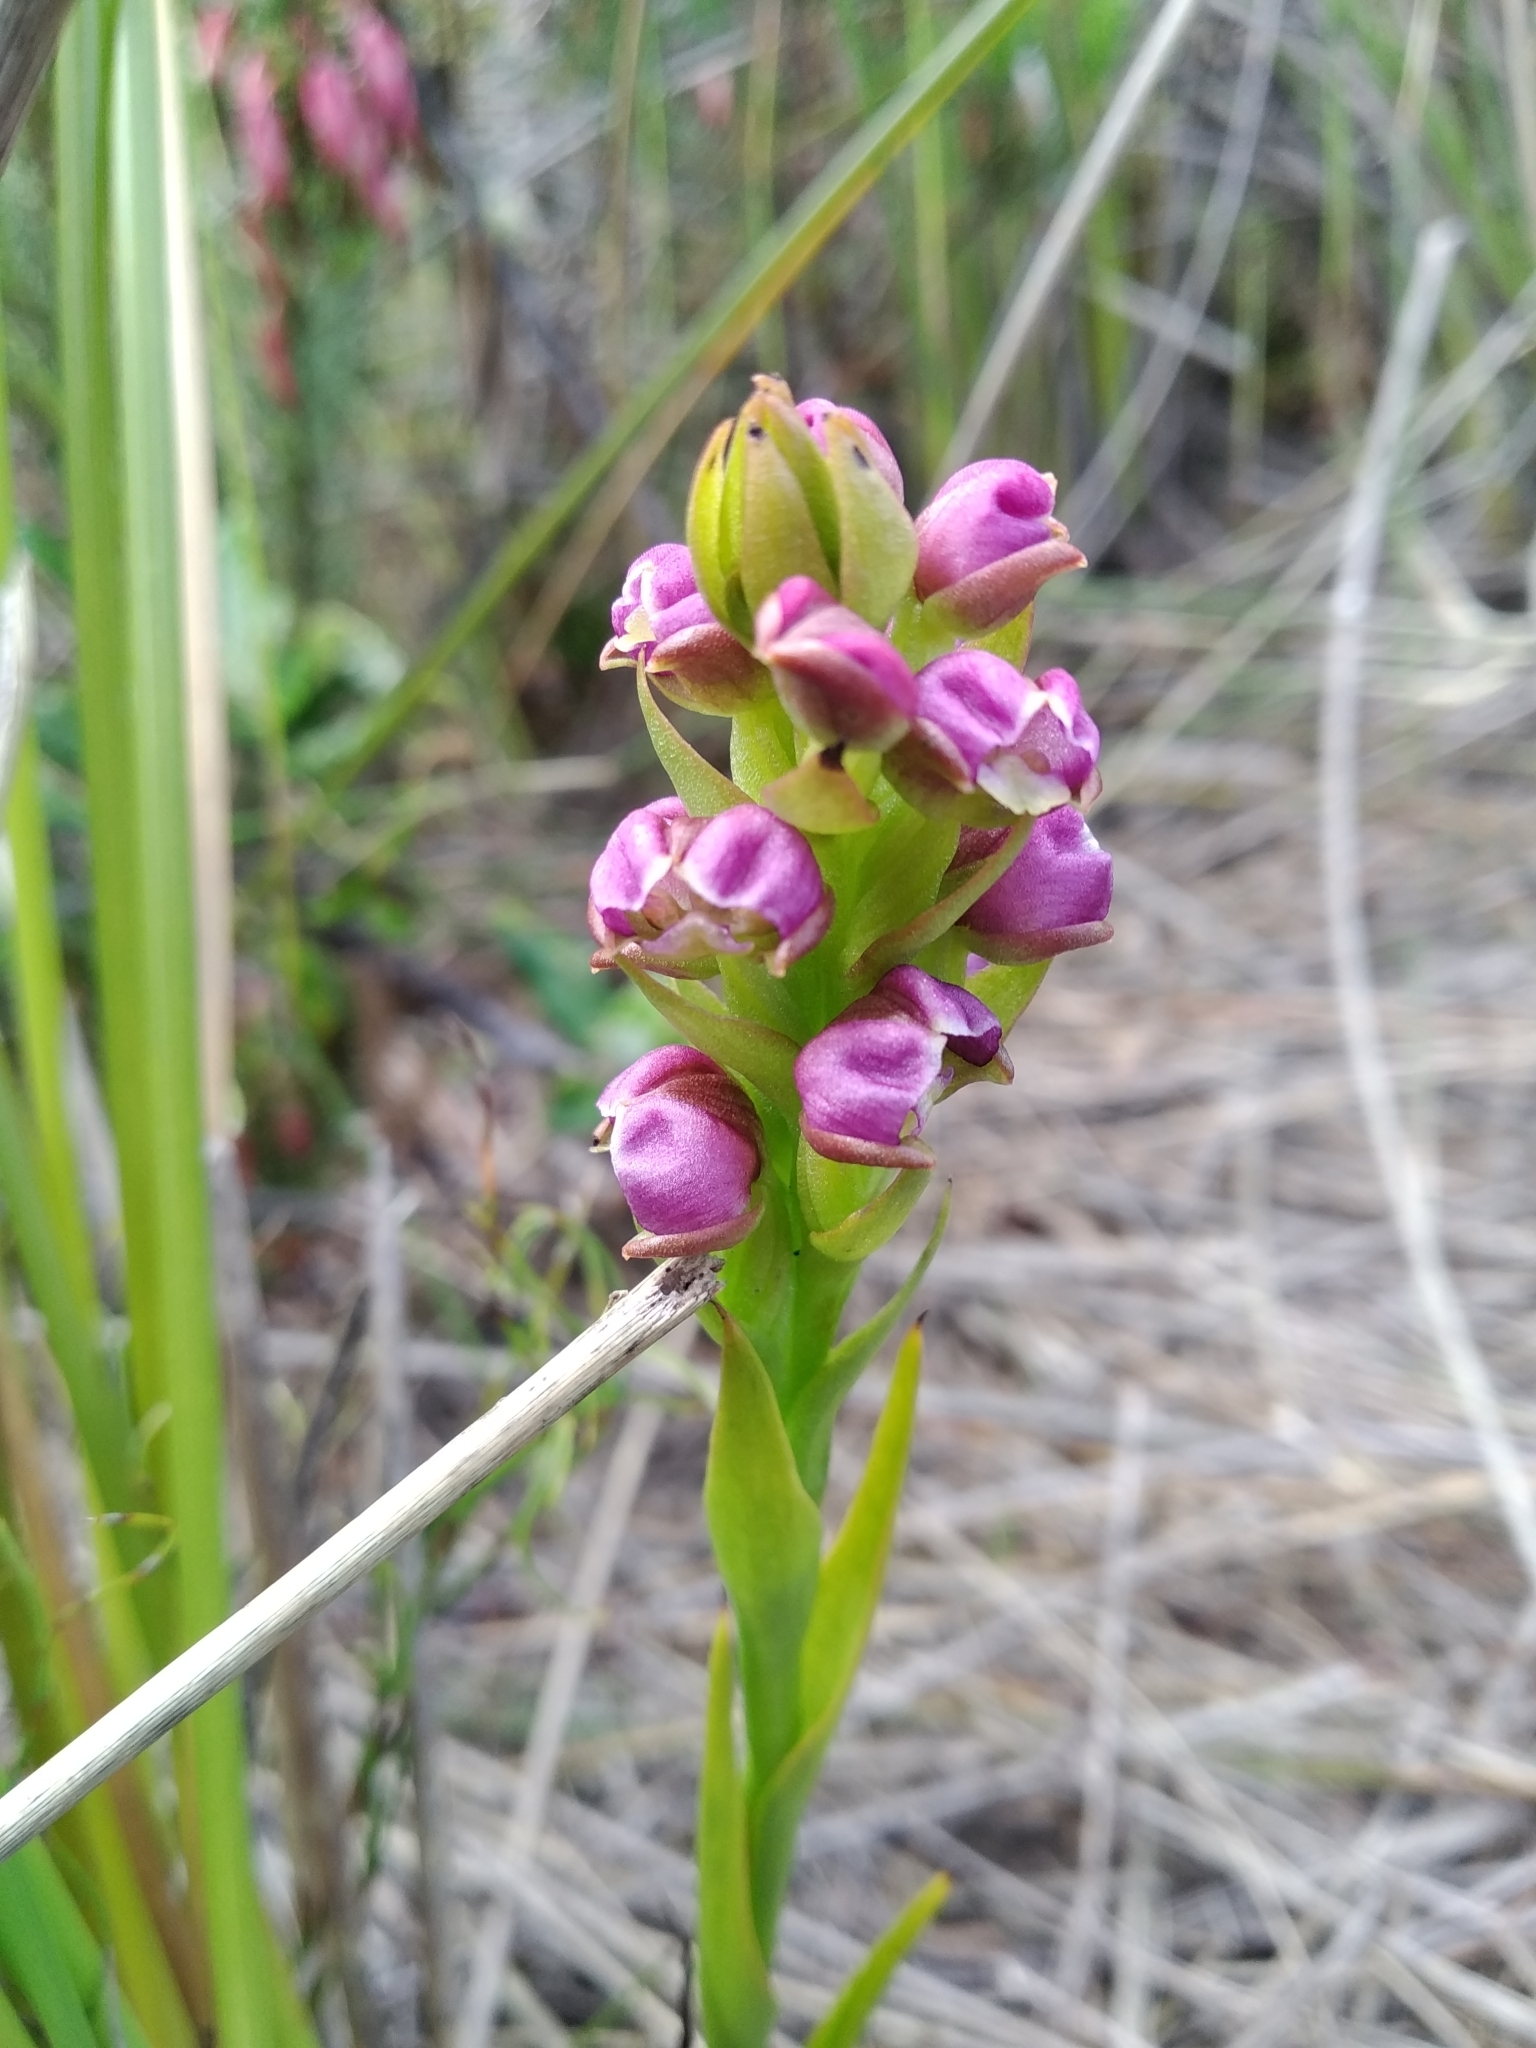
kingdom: Plantae
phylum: Tracheophyta
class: Liliopsida
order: Asparagales
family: Orchidaceae
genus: Evotella
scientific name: Evotella carnosa
